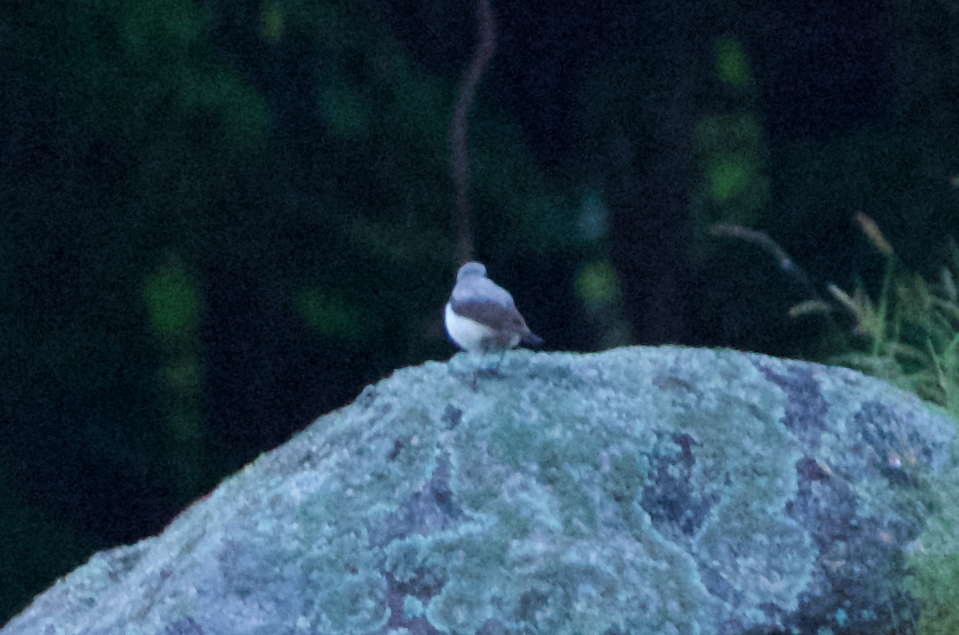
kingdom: Animalia
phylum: Chordata
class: Aves
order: Passeriformes
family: Muscicapidae
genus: Oenanthe
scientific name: Oenanthe oenanthe
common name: Northern wheatear
